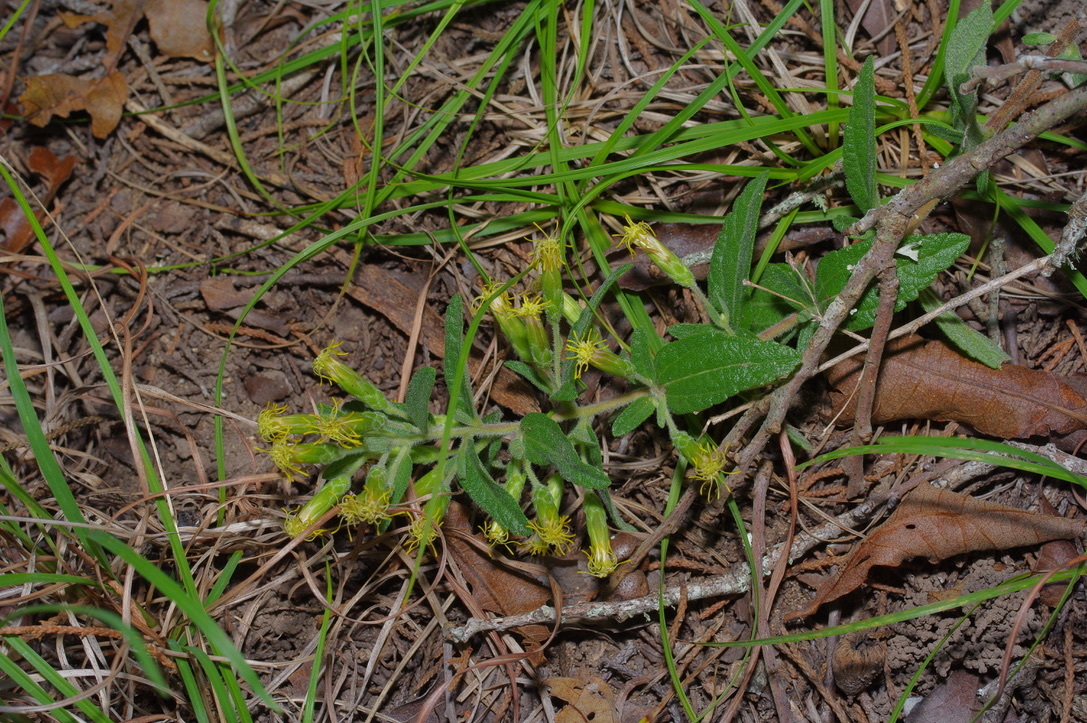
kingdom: Plantae
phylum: Tracheophyta
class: Magnoliopsida
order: Asterales
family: Asteraceae
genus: Brickellia
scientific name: Brickellia cylindracea
